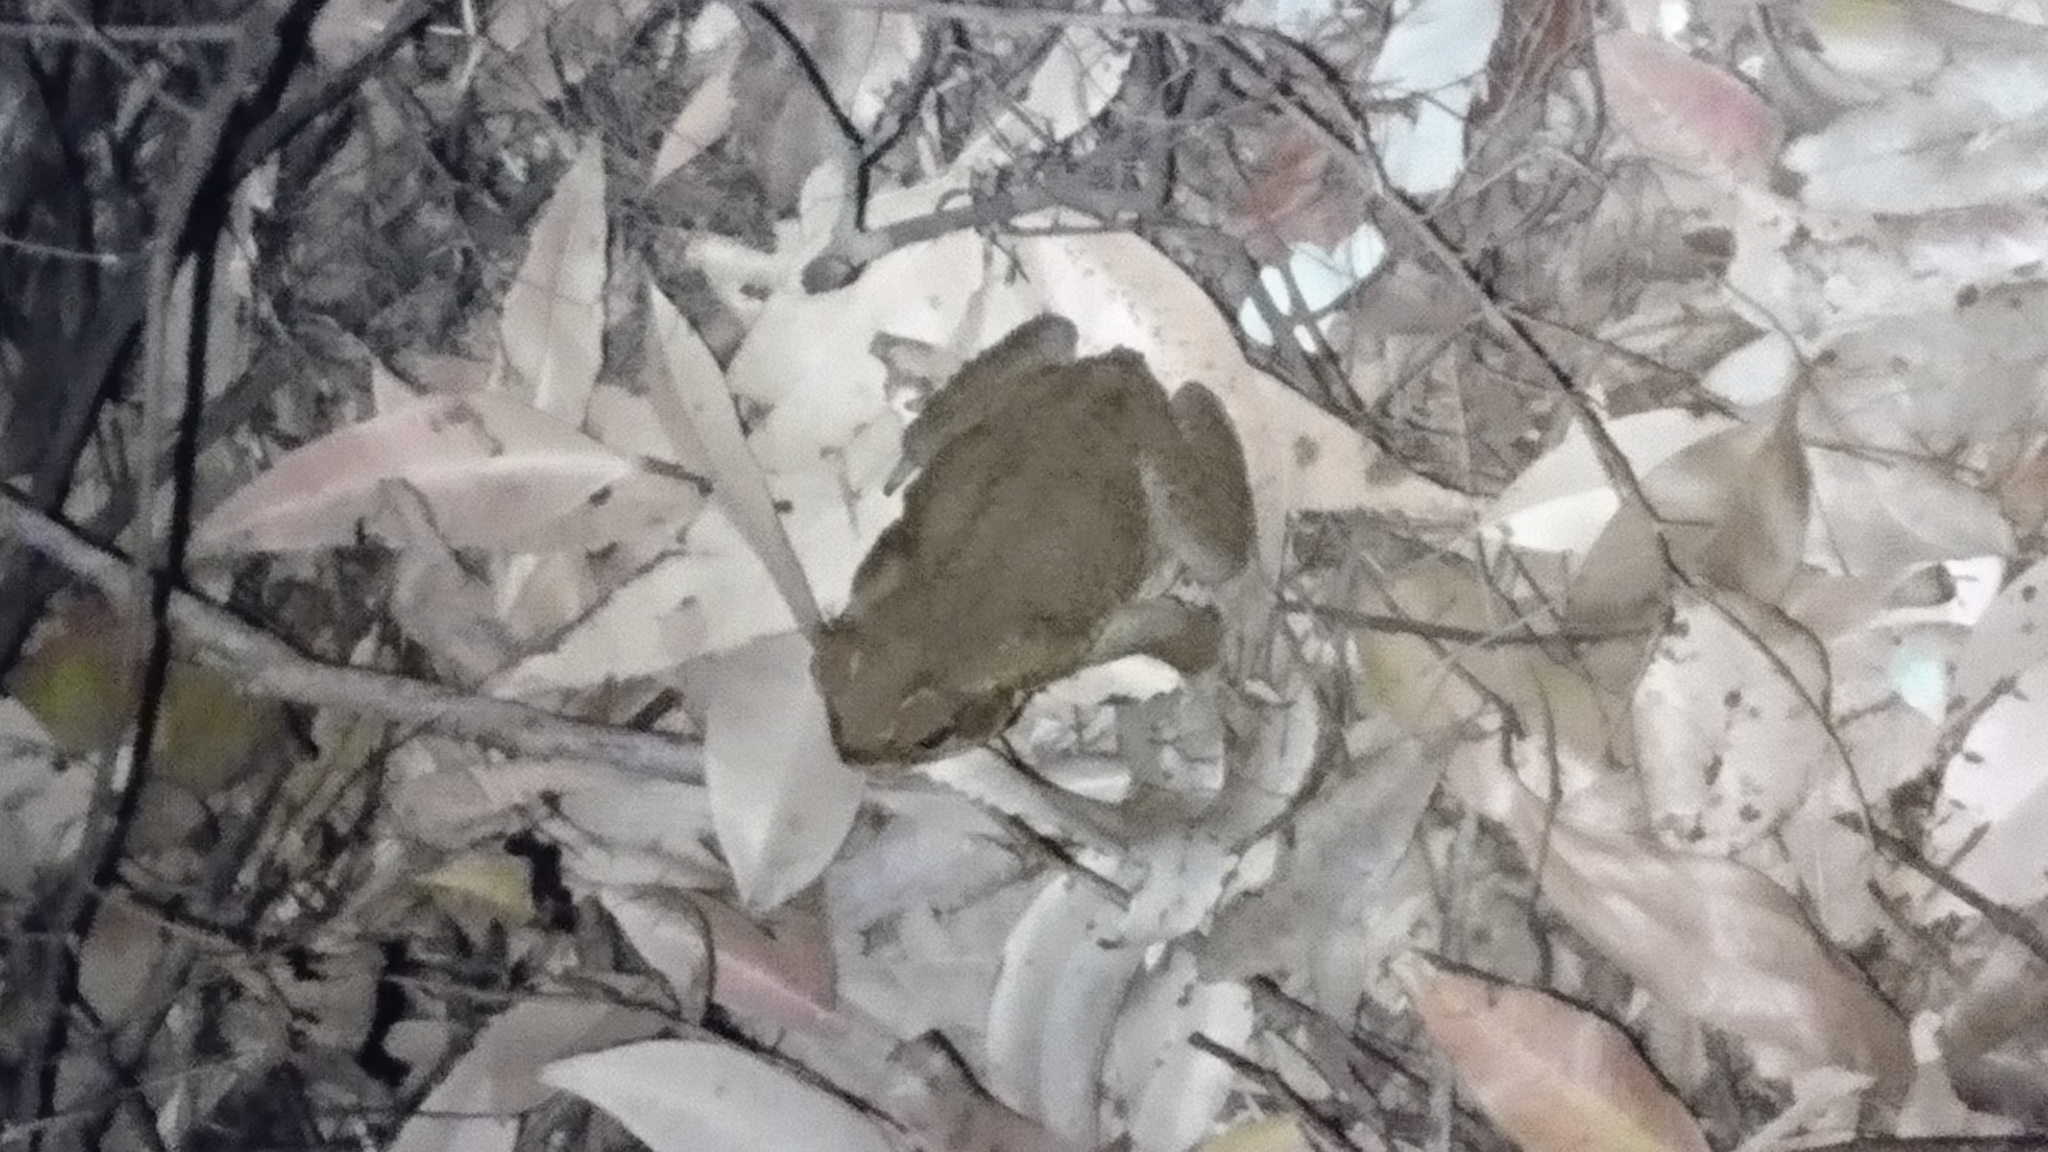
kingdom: Animalia
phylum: Chordata
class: Amphibia
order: Anura
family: Bufonidae
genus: Rhinella
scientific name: Rhinella marina
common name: Cane toad
